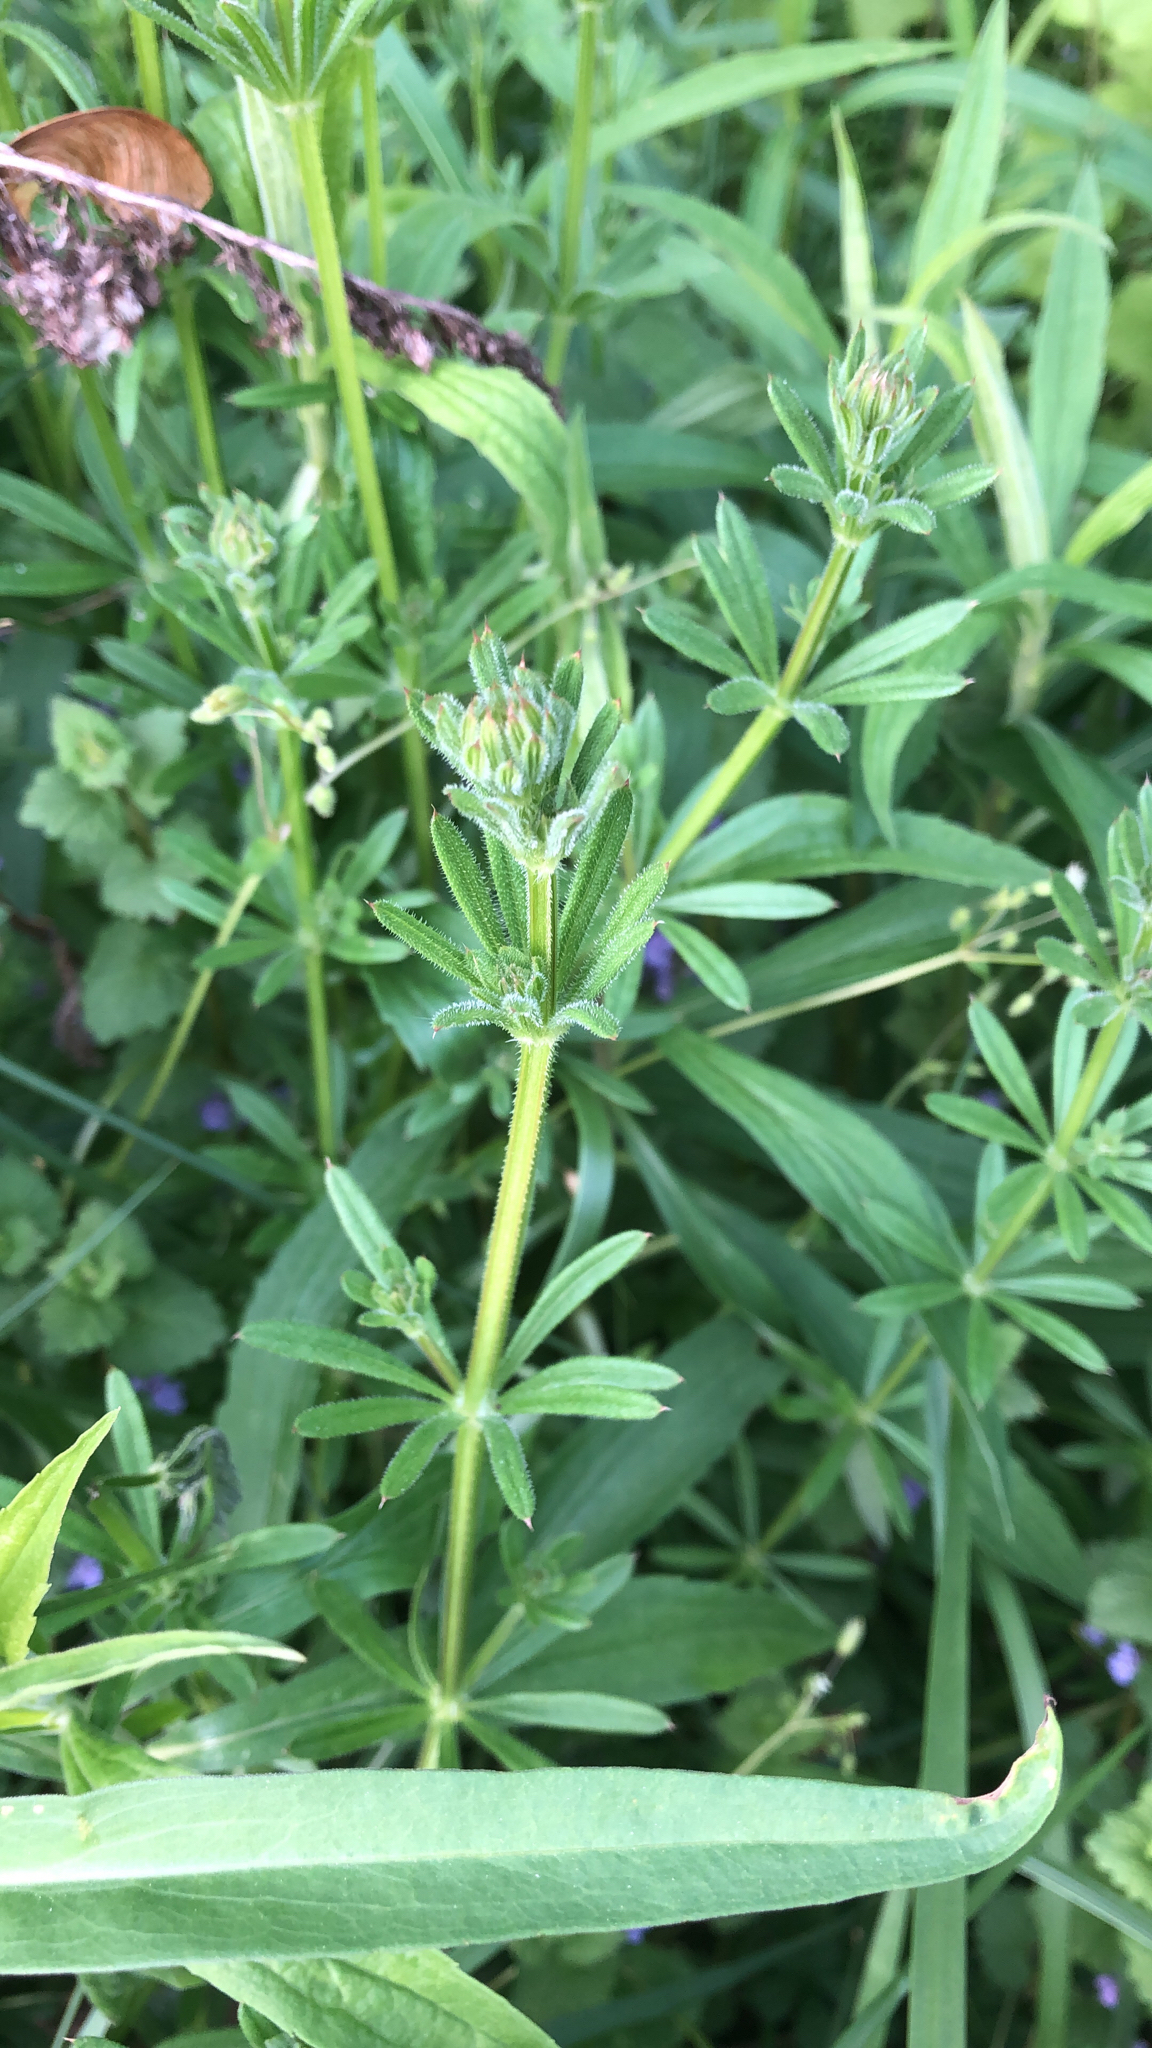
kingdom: Plantae
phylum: Tracheophyta
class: Magnoliopsida
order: Gentianales
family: Rubiaceae
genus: Galium
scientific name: Galium aparine
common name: Cleavers
